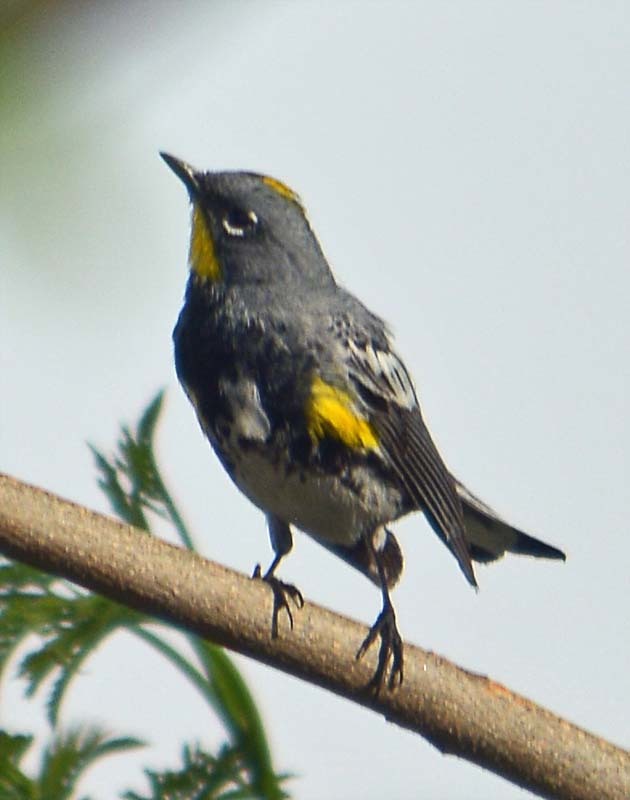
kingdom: Animalia
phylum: Chordata
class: Aves
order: Passeriformes
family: Parulidae
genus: Setophaga
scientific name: Setophaga auduboni
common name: Audubon's warbler
